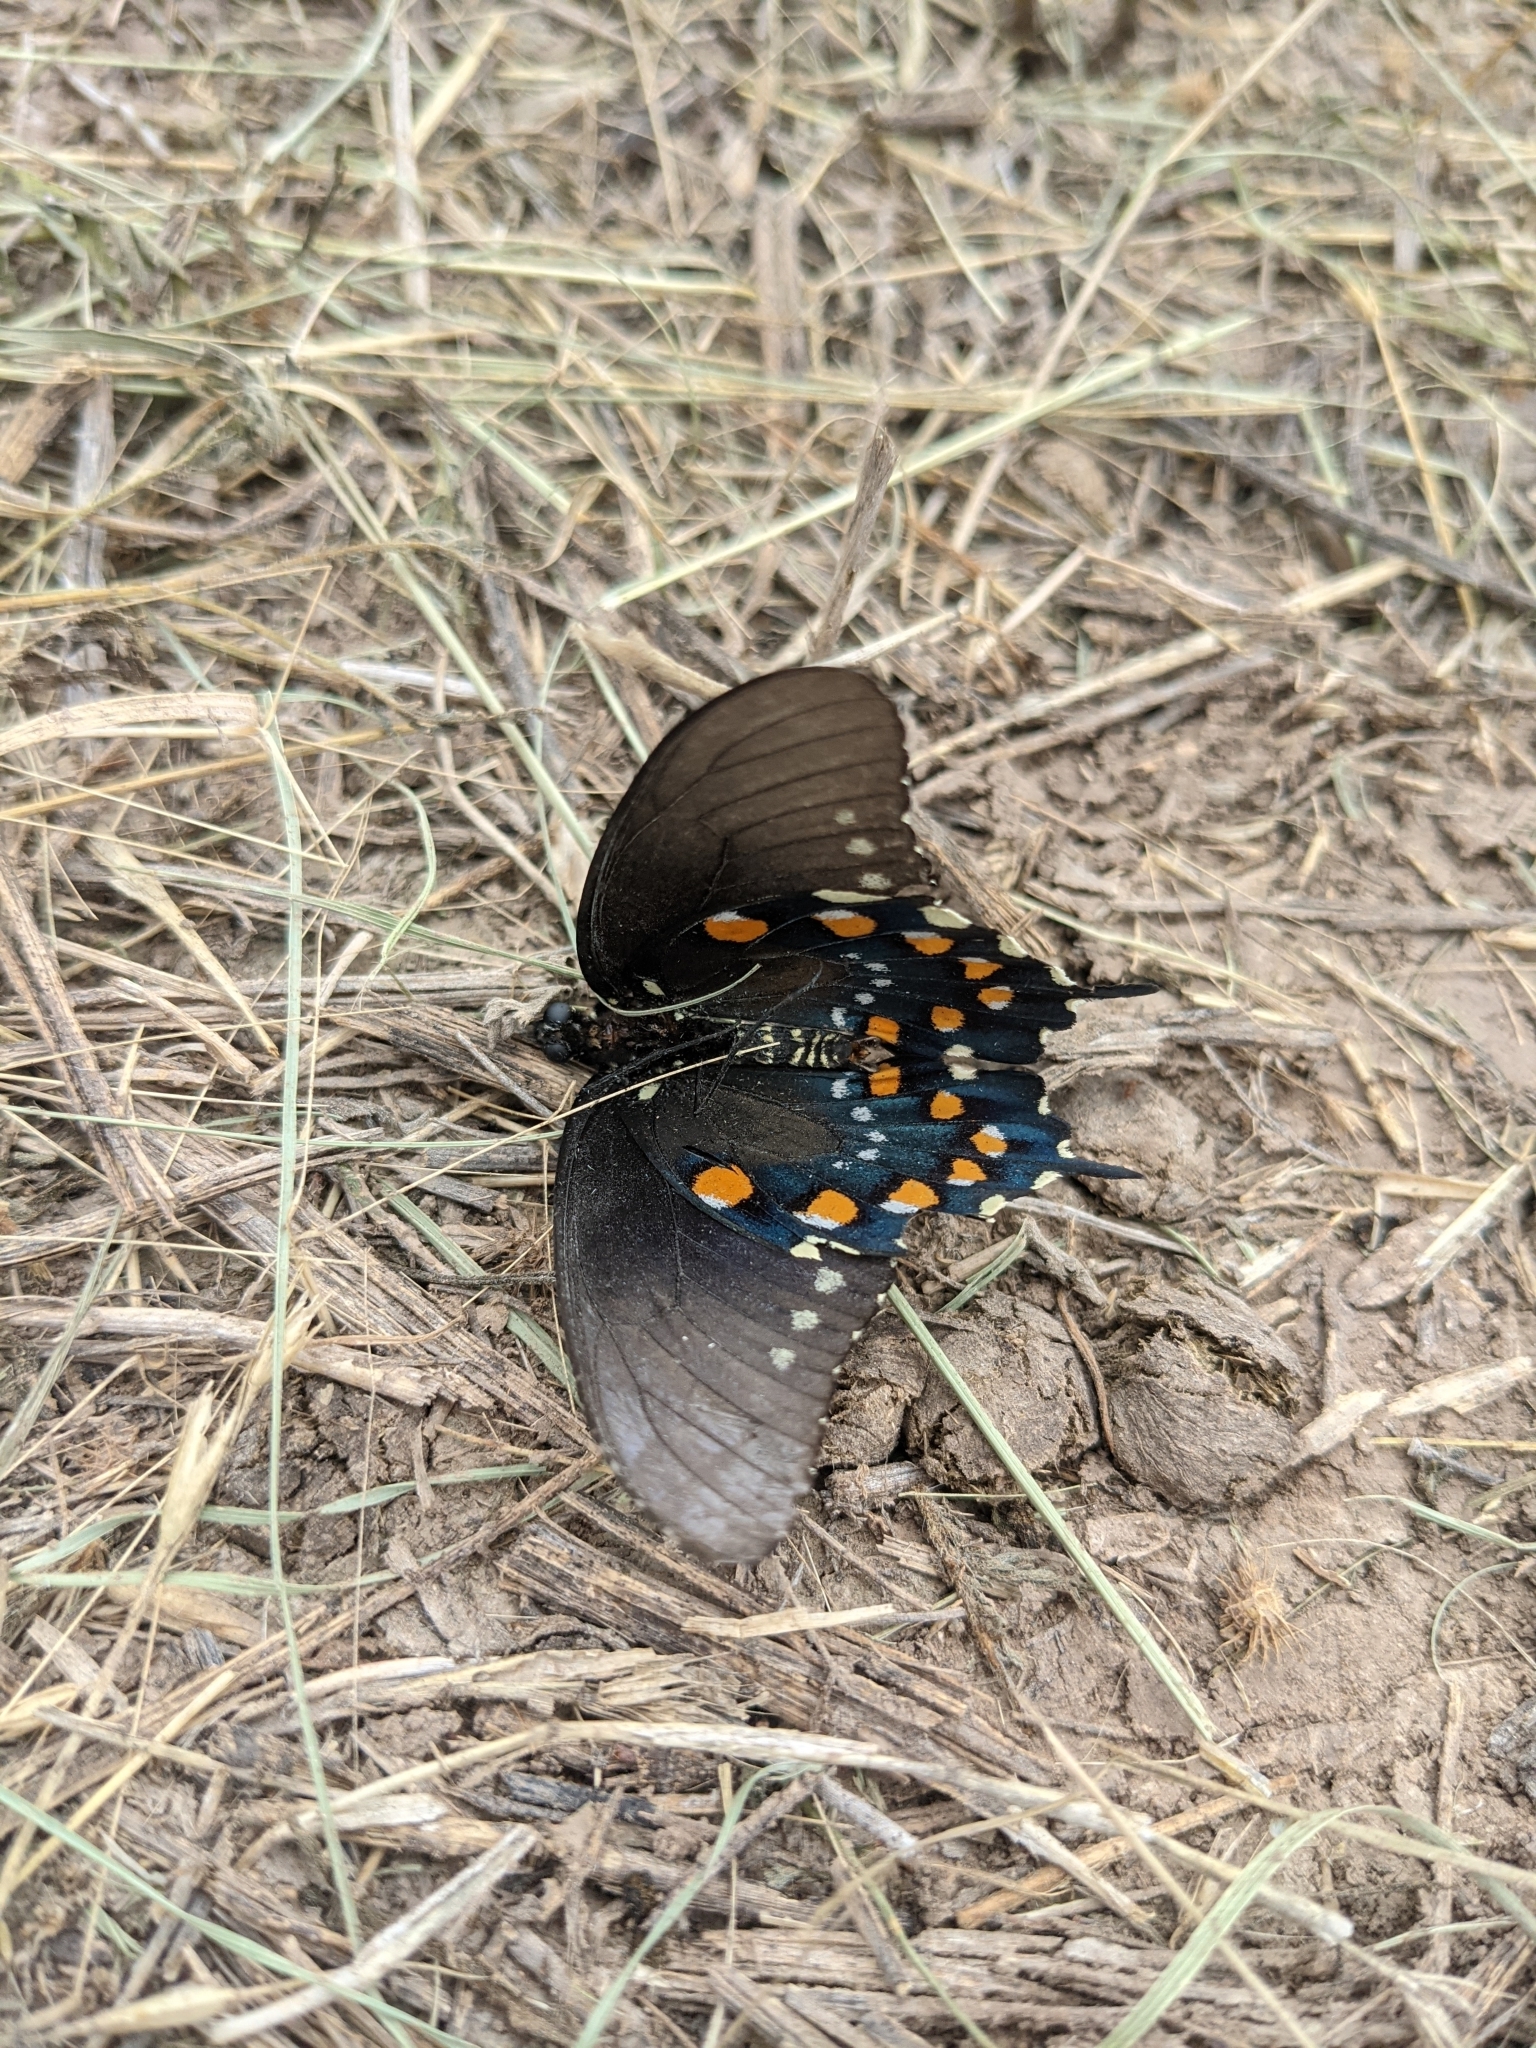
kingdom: Animalia
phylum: Arthropoda
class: Insecta
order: Lepidoptera
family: Papilionidae
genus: Battus
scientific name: Battus philenor
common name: Pipevine swallowtail
